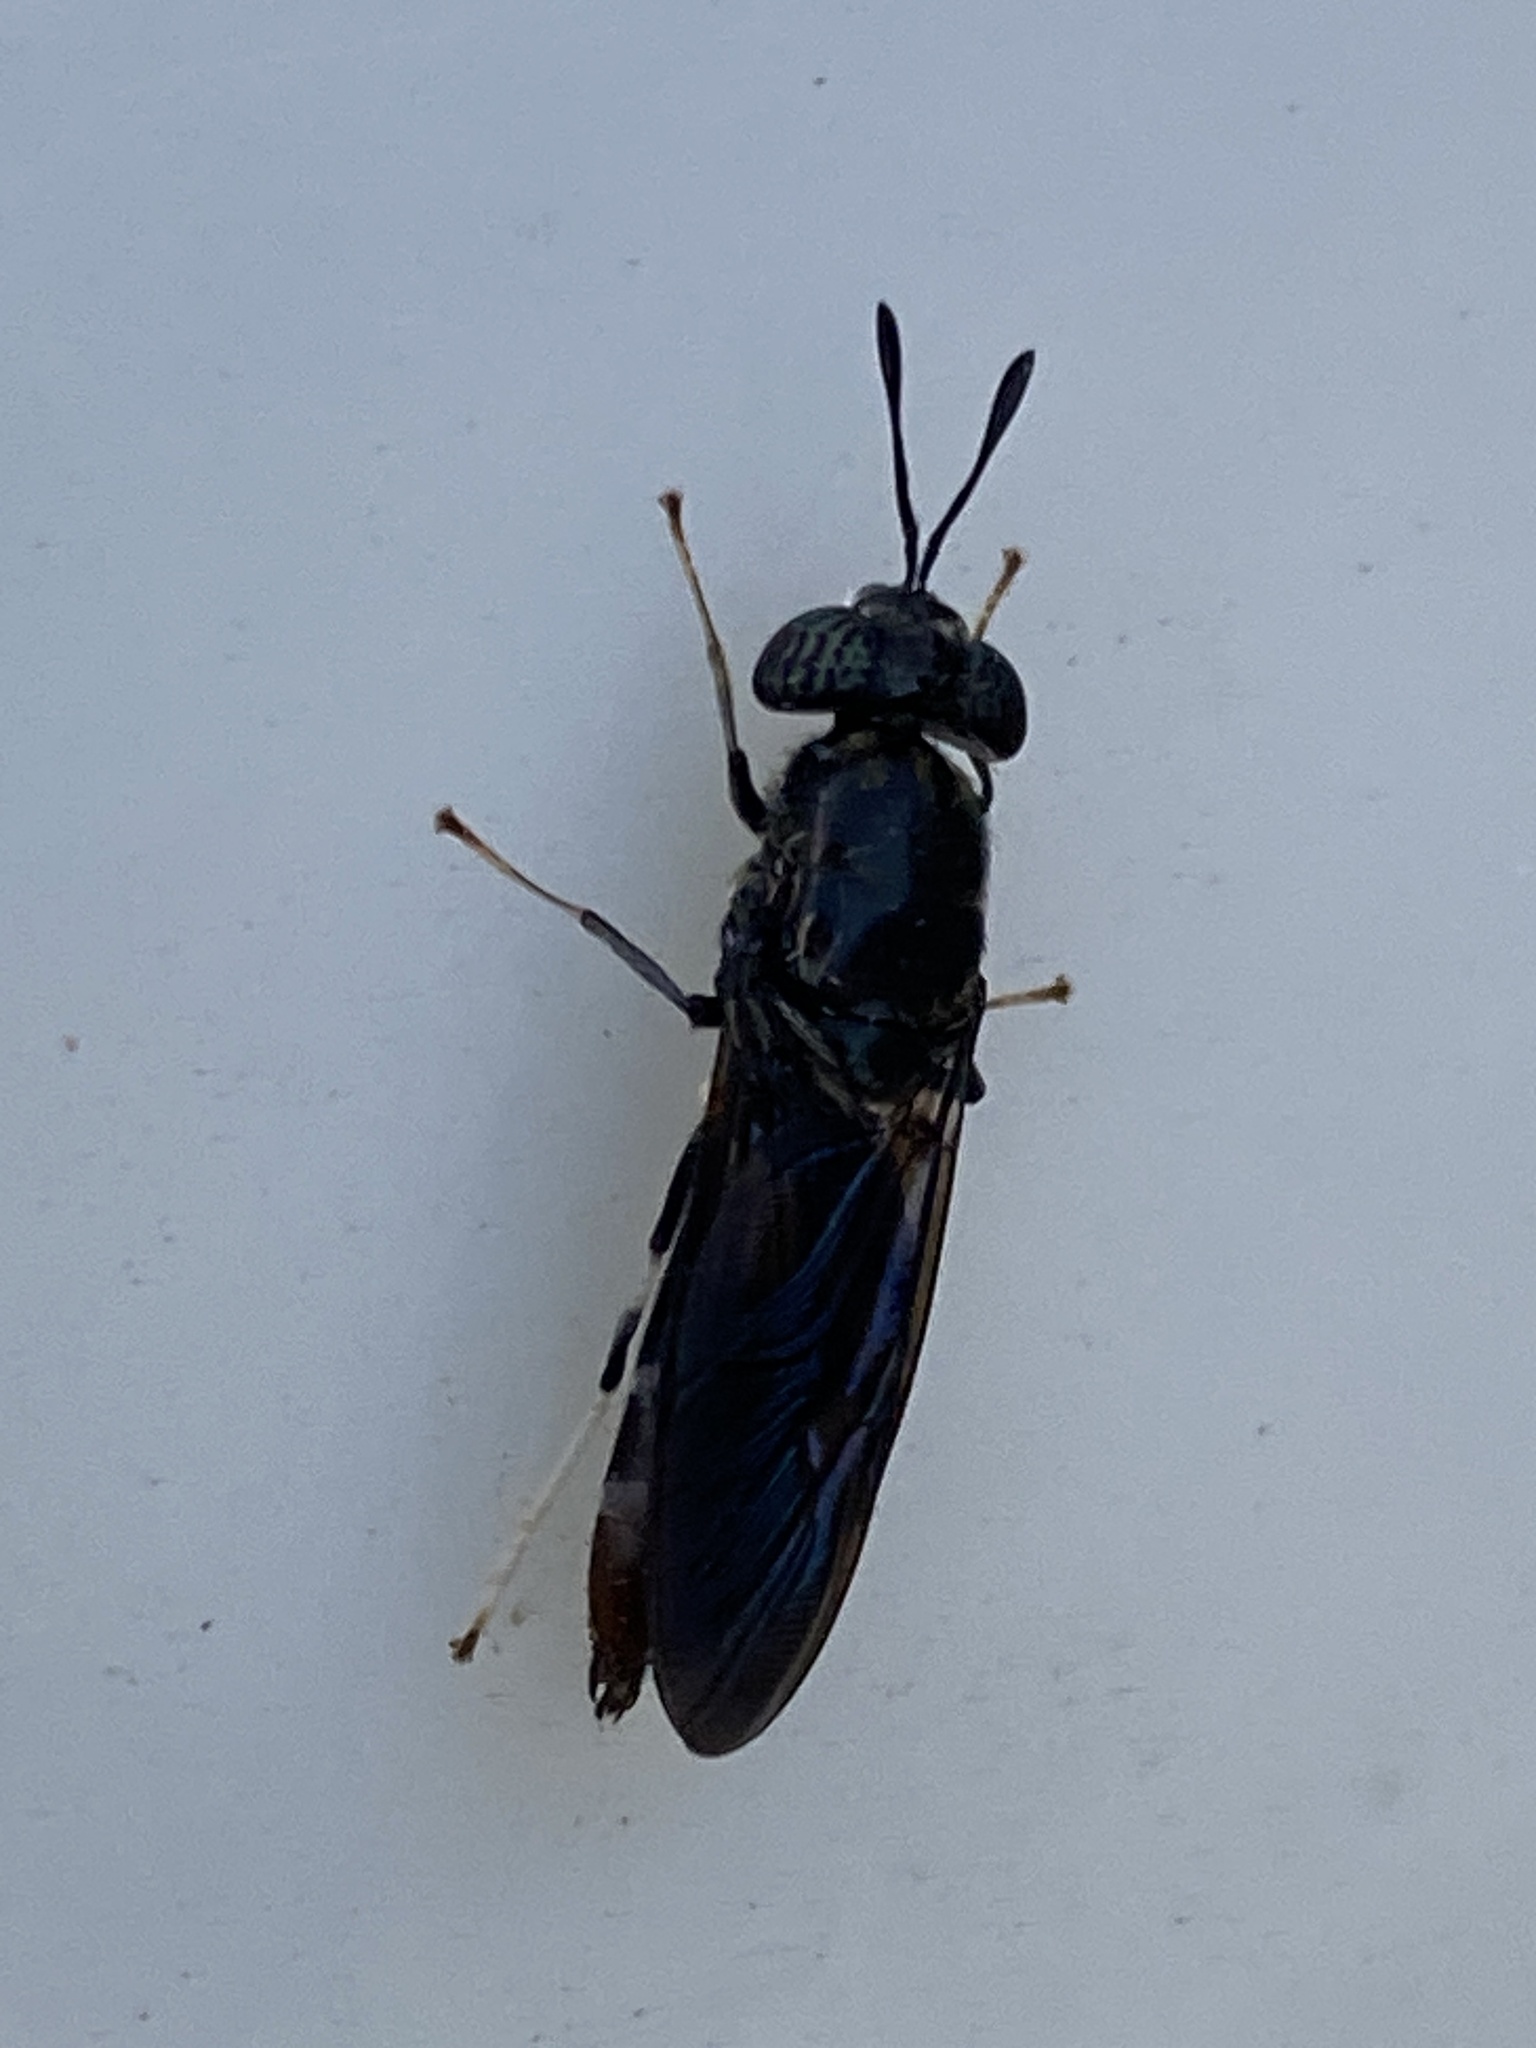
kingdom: Animalia
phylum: Arthropoda
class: Insecta
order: Diptera
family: Stratiomyidae
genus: Hermetia
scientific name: Hermetia illucens
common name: Black soldier fly
